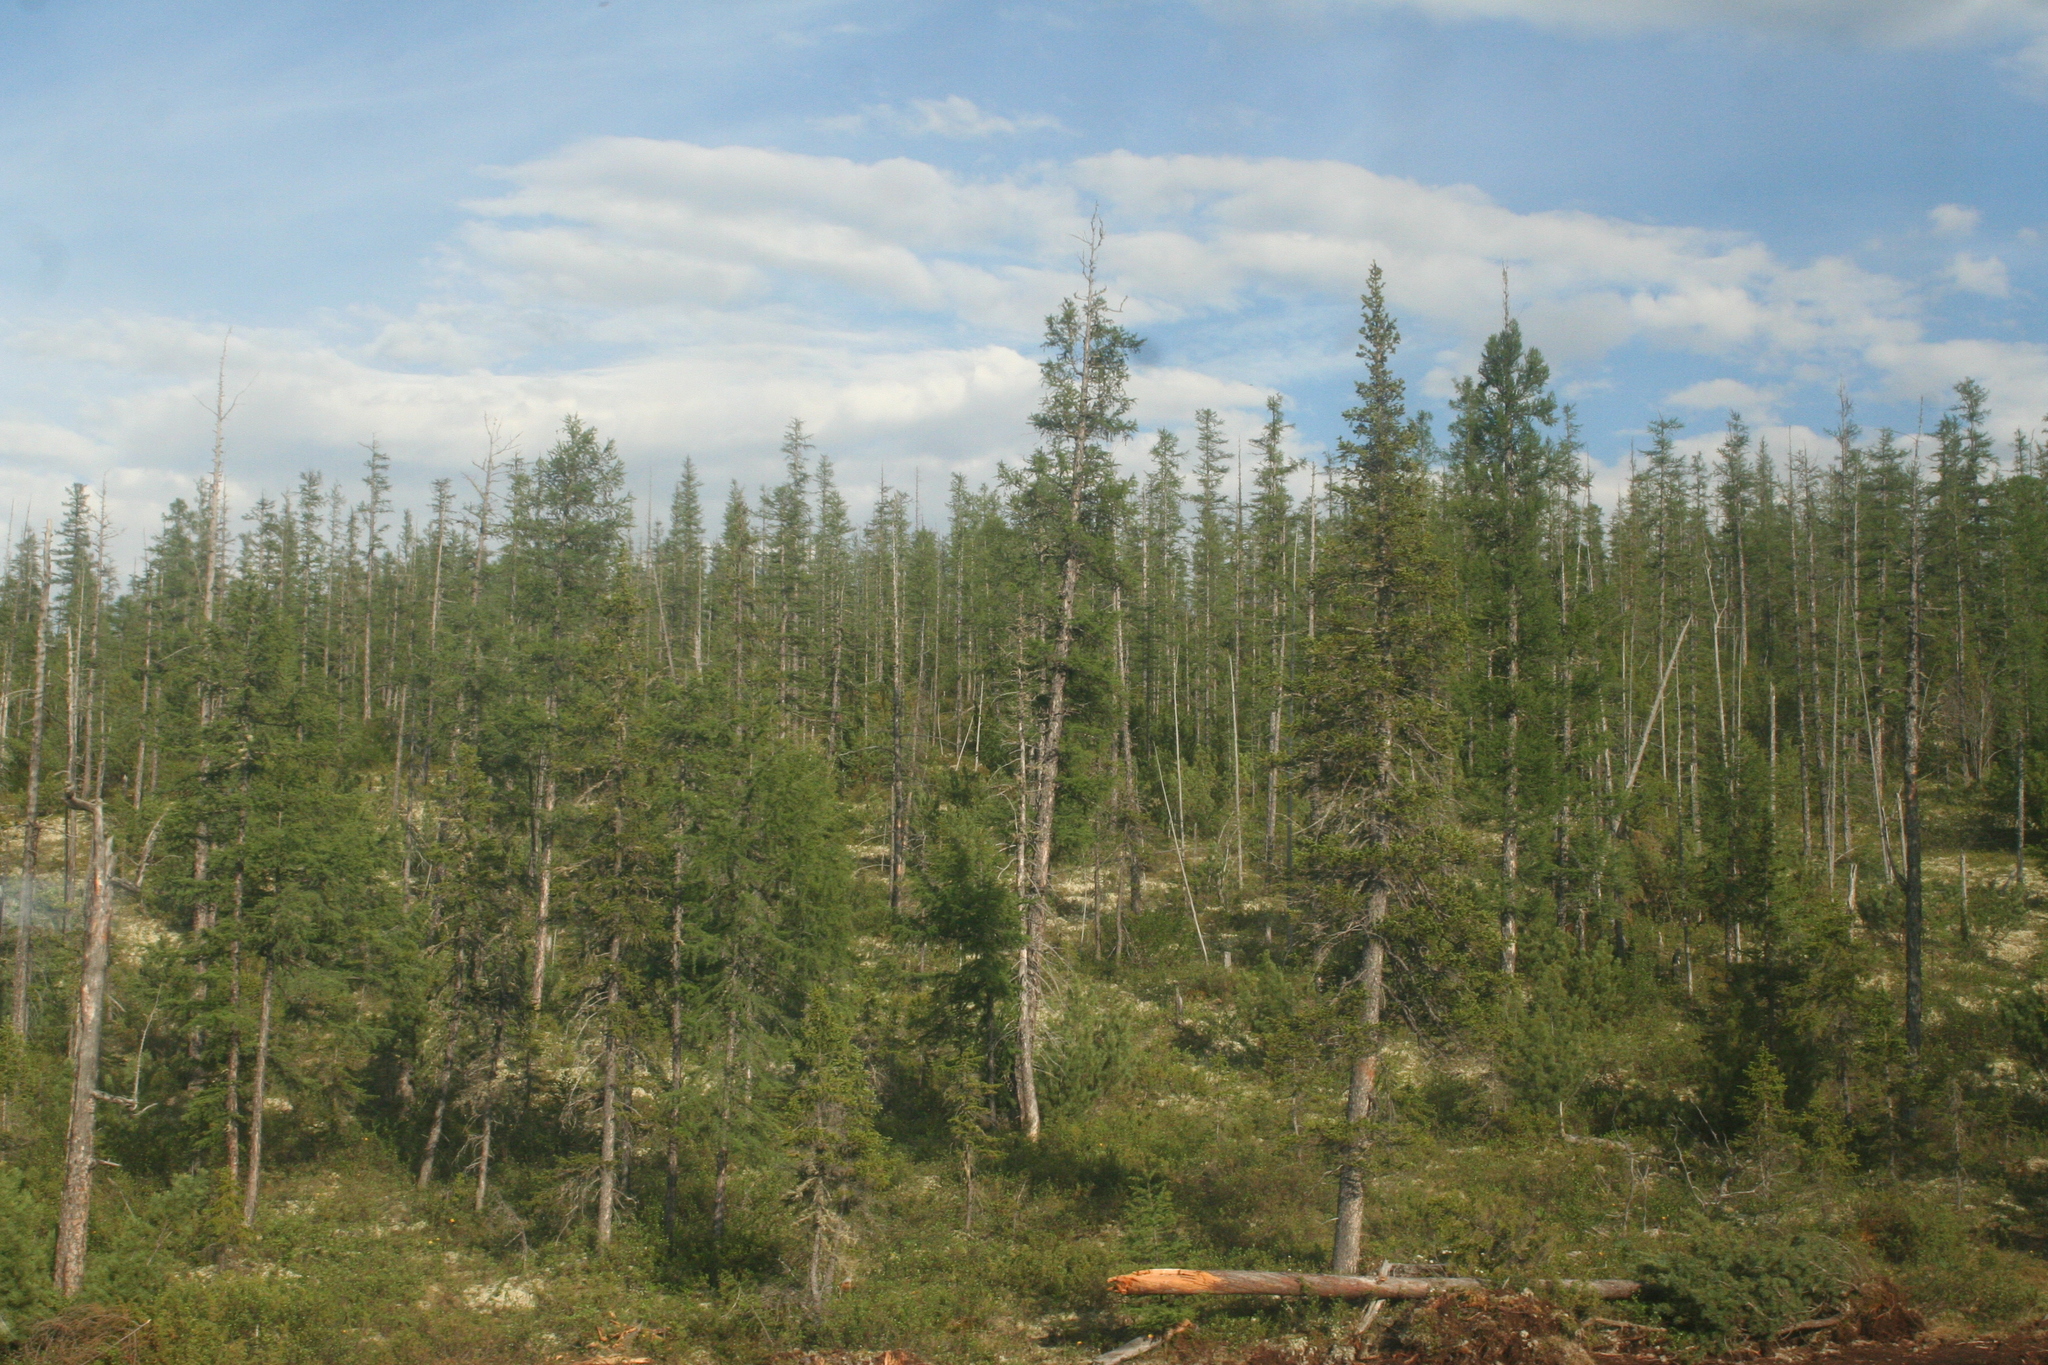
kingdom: Plantae
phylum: Tracheophyta
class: Pinopsida
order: Pinales
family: Pinaceae
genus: Pinus
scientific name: Pinus pumila
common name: Dwarf siberian pine
